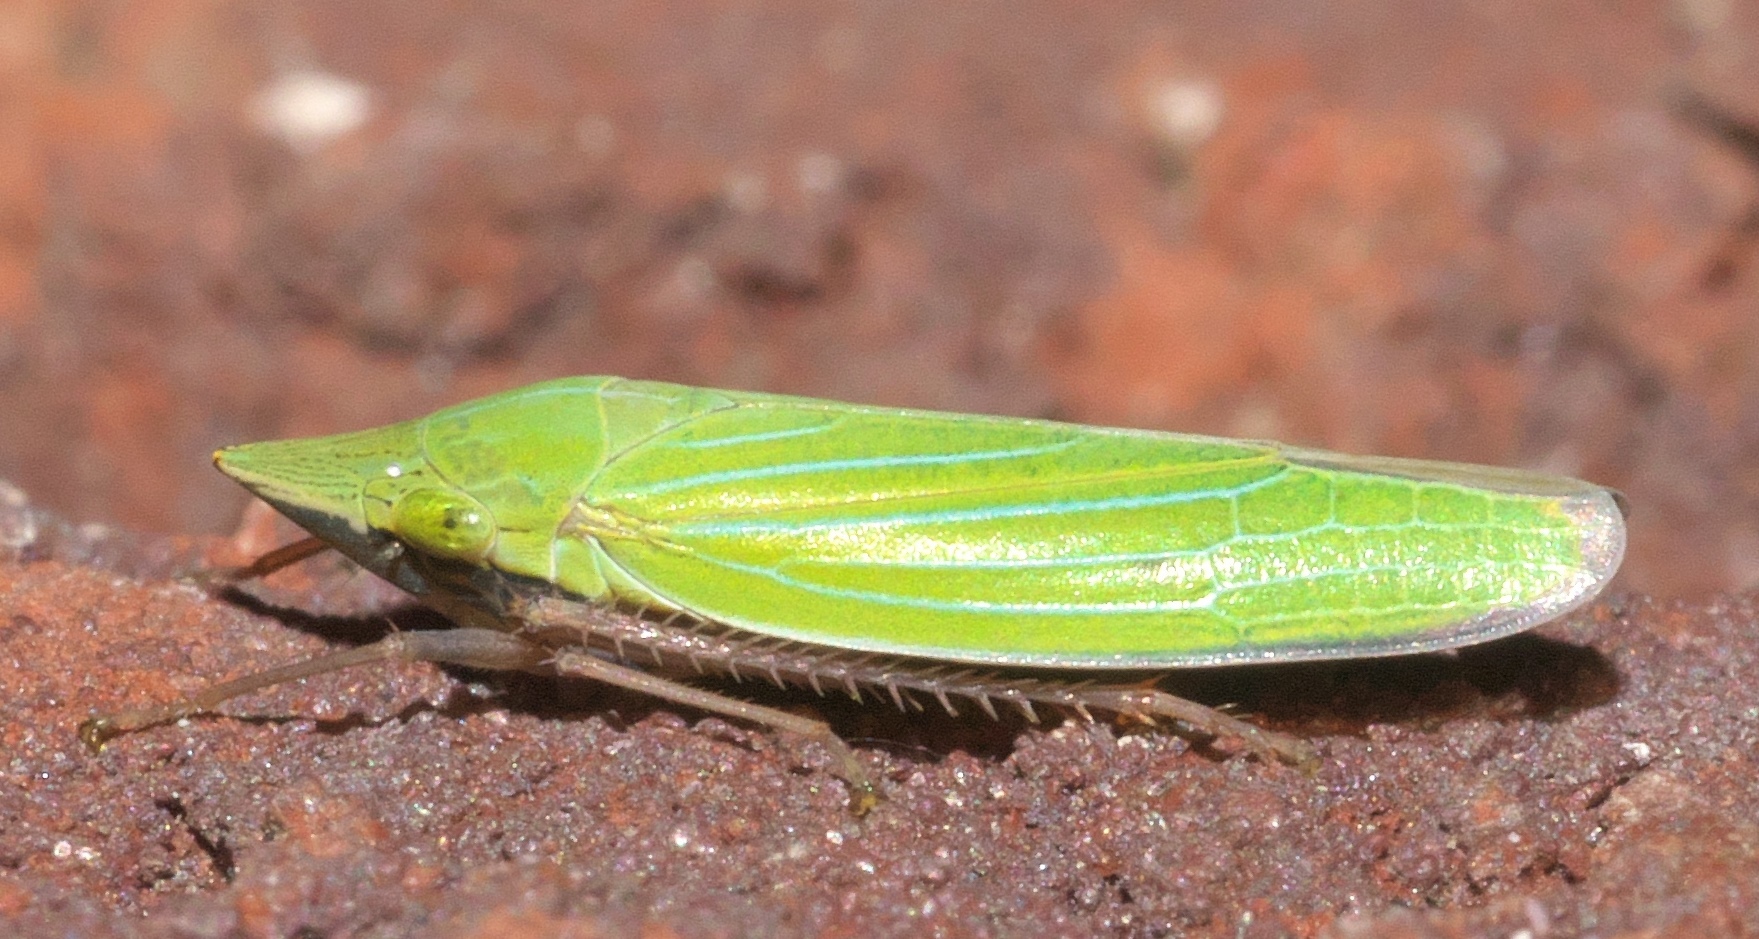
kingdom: Animalia
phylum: Arthropoda
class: Insecta
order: Hemiptera
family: Cicadellidae
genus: Draeculacephala
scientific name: Draeculacephala robinsoni
